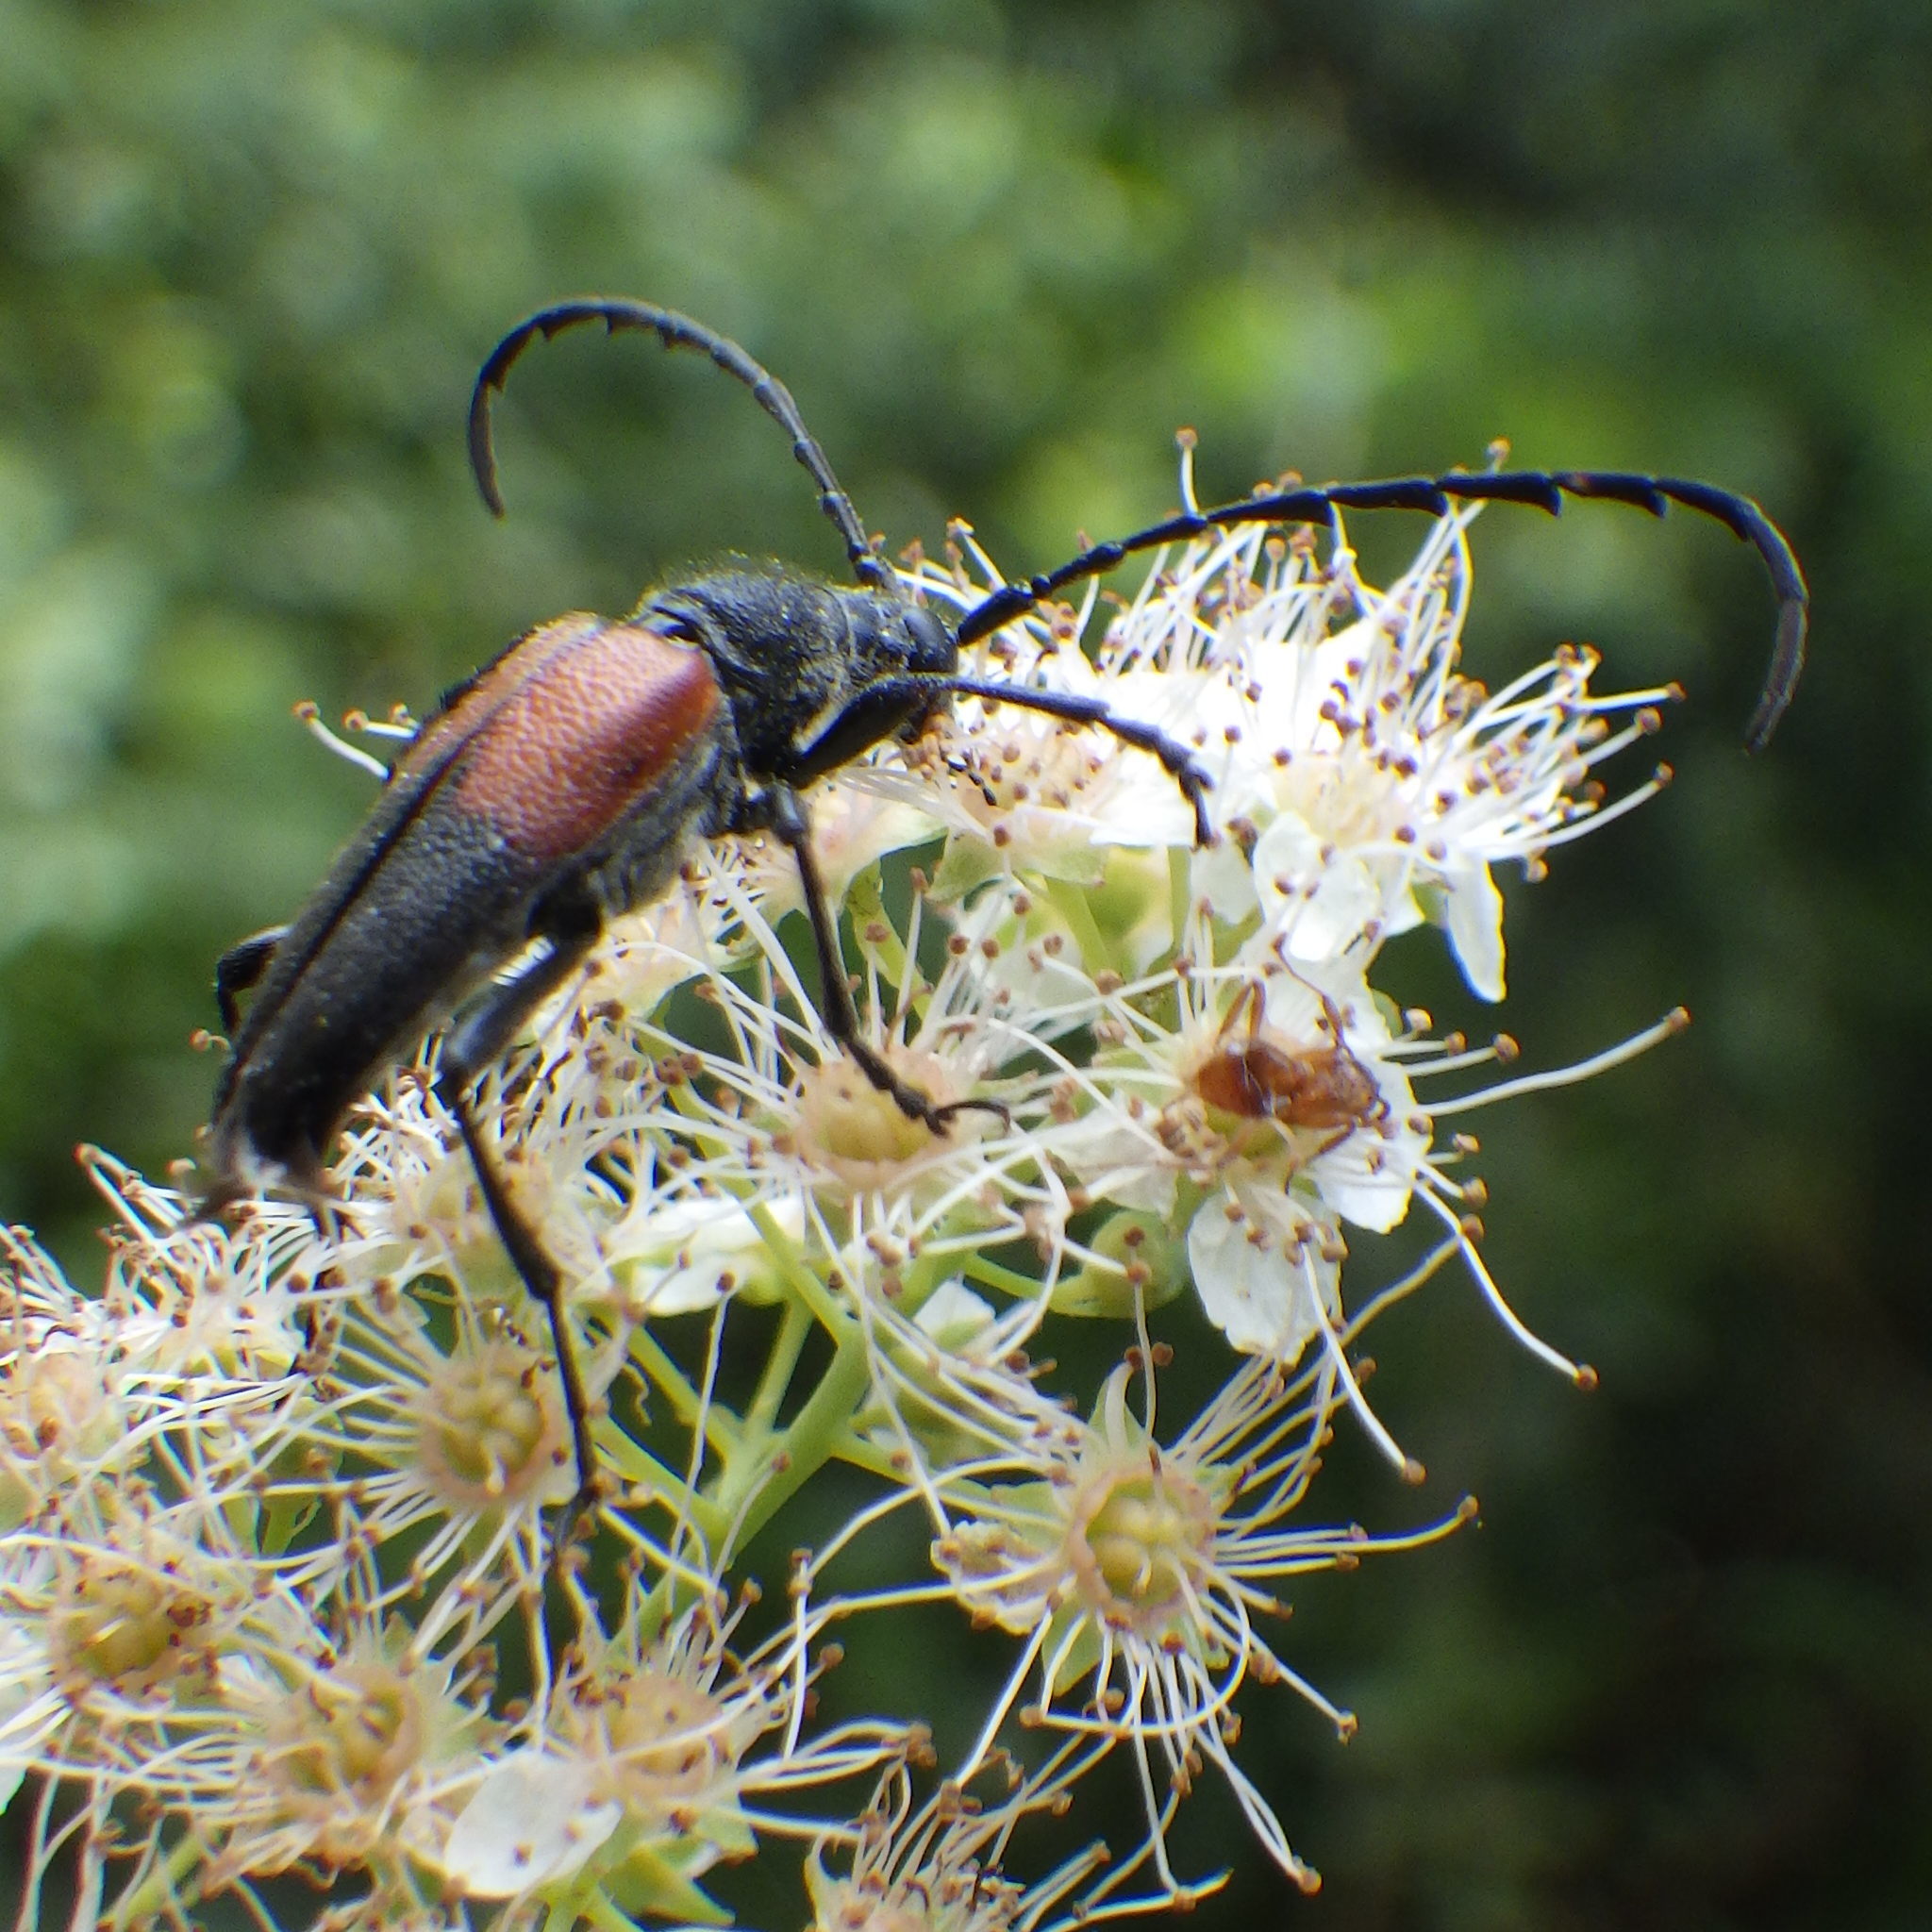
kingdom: Animalia
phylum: Arthropoda
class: Insecta
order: Coleoptera
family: Cerambycidae
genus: Stictoleptura
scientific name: Stictoleptura canadensis
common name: Red-shouldered pine borer
